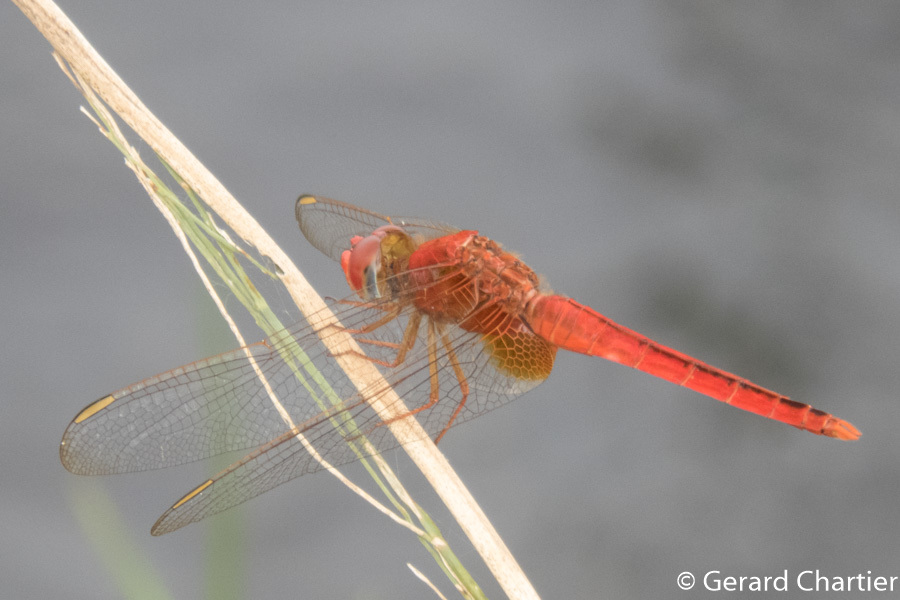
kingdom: Animalia
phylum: Arthropoda
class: Insecta
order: Odonata
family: Libellulidae
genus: Crocothemis
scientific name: Crocothemis servilia
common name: Scarlet skimmer
